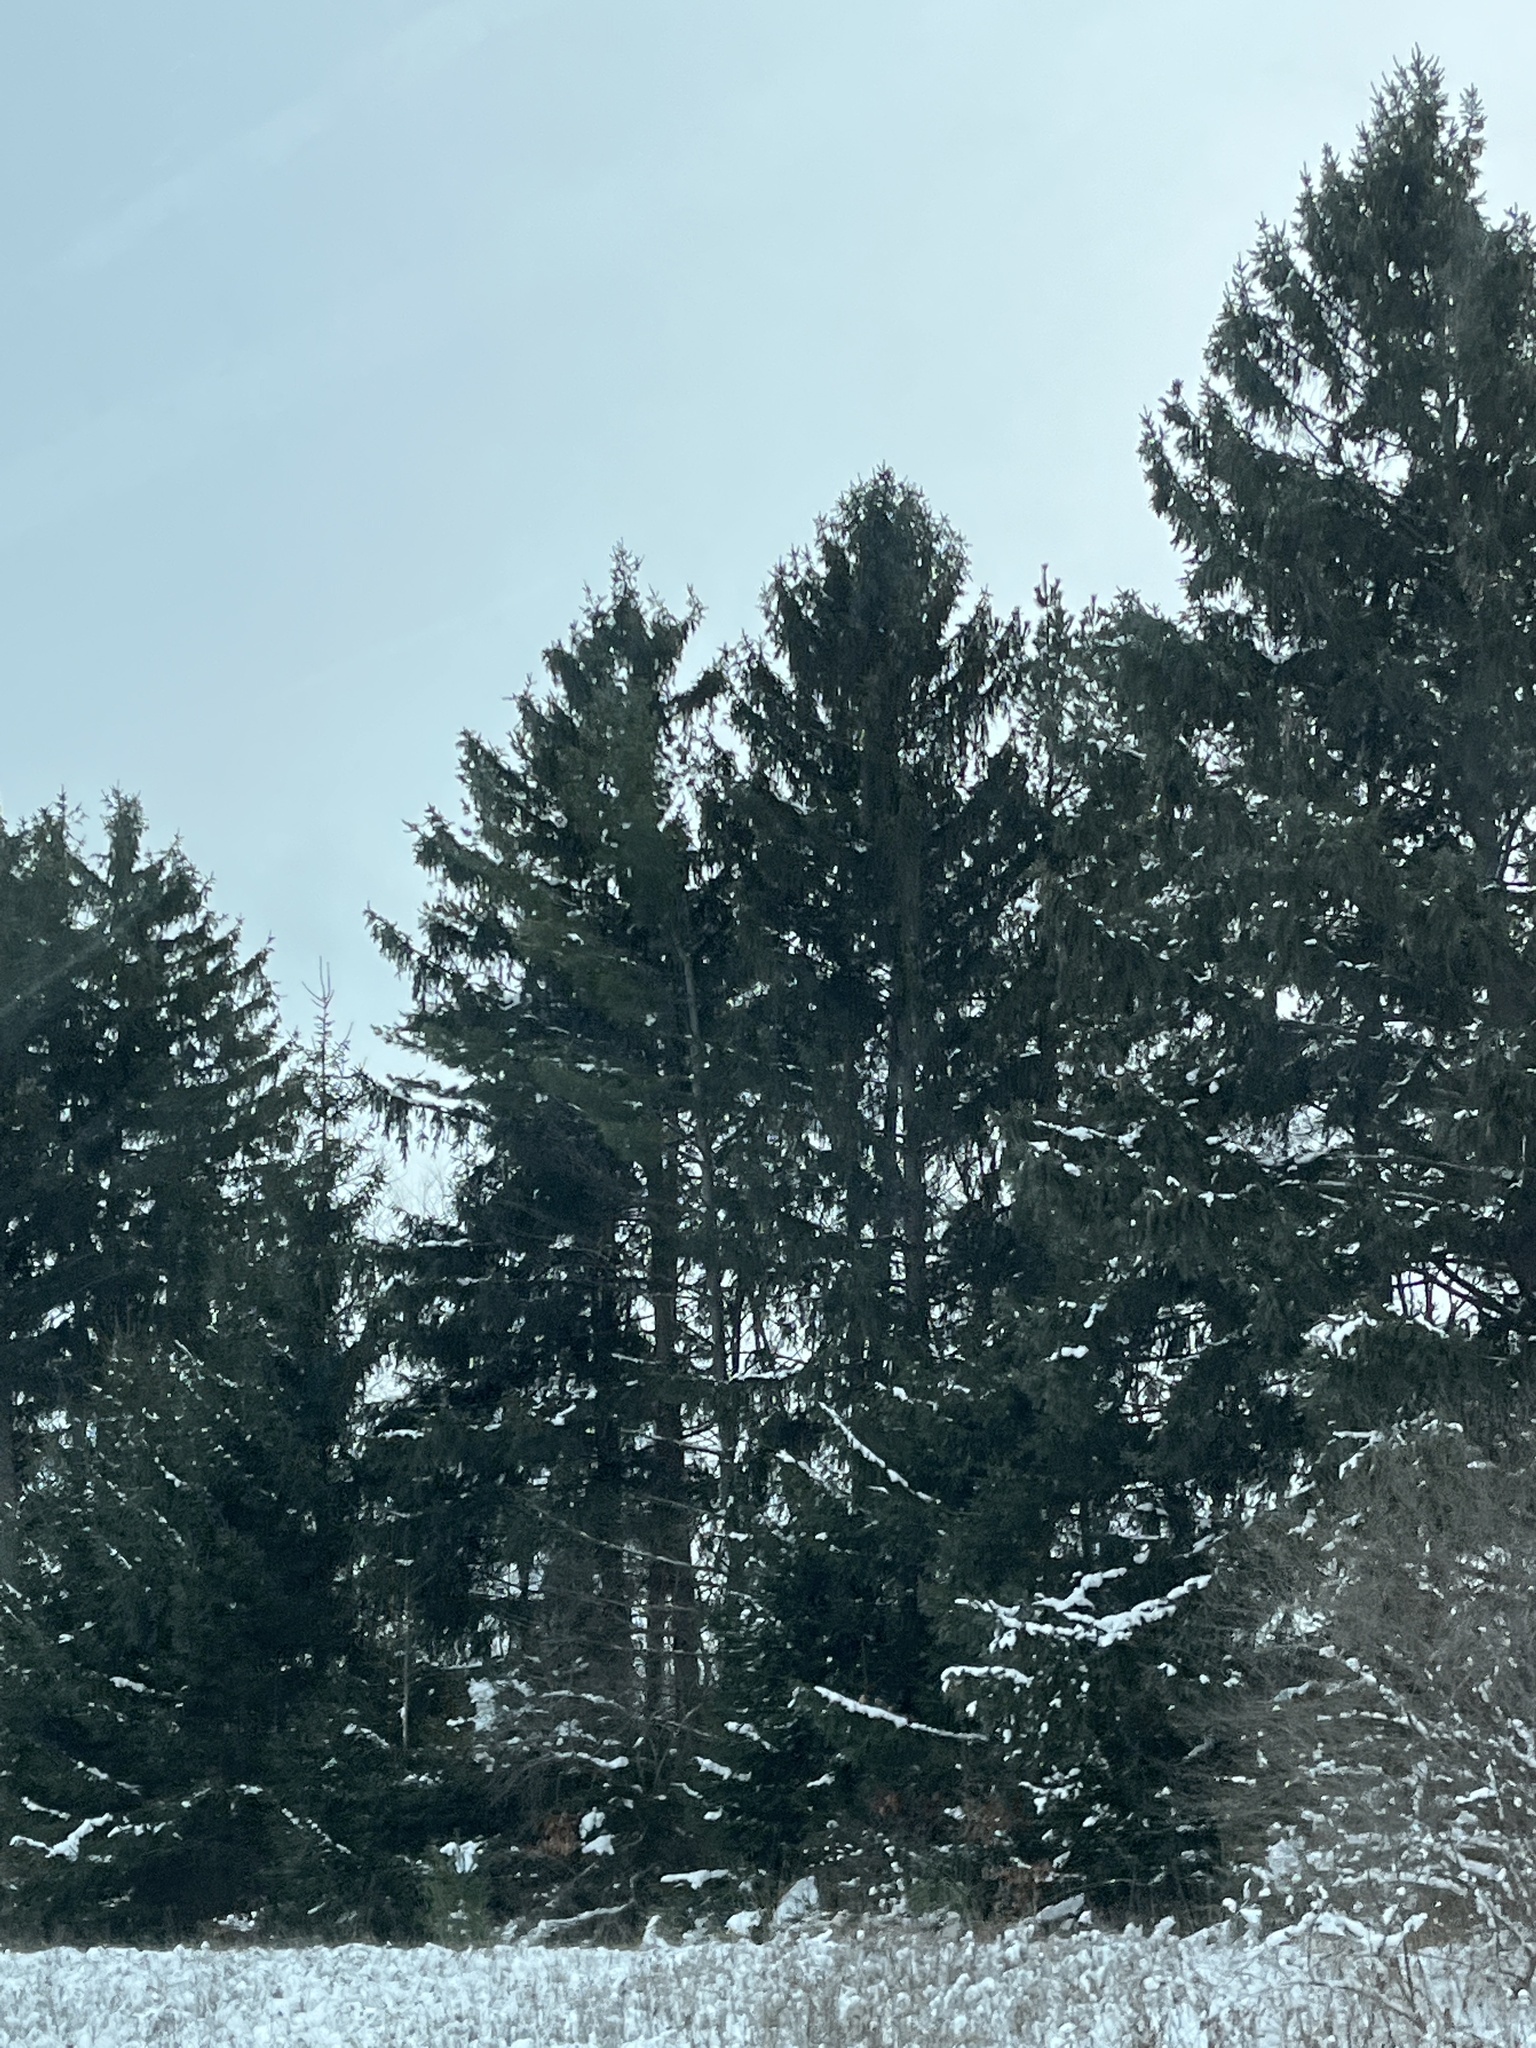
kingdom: Plantae
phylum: Tracheophyta
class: Pinopsida
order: Pinales
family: Pinaceae
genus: Pinus
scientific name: Pinus strobus
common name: Weymouth pine
